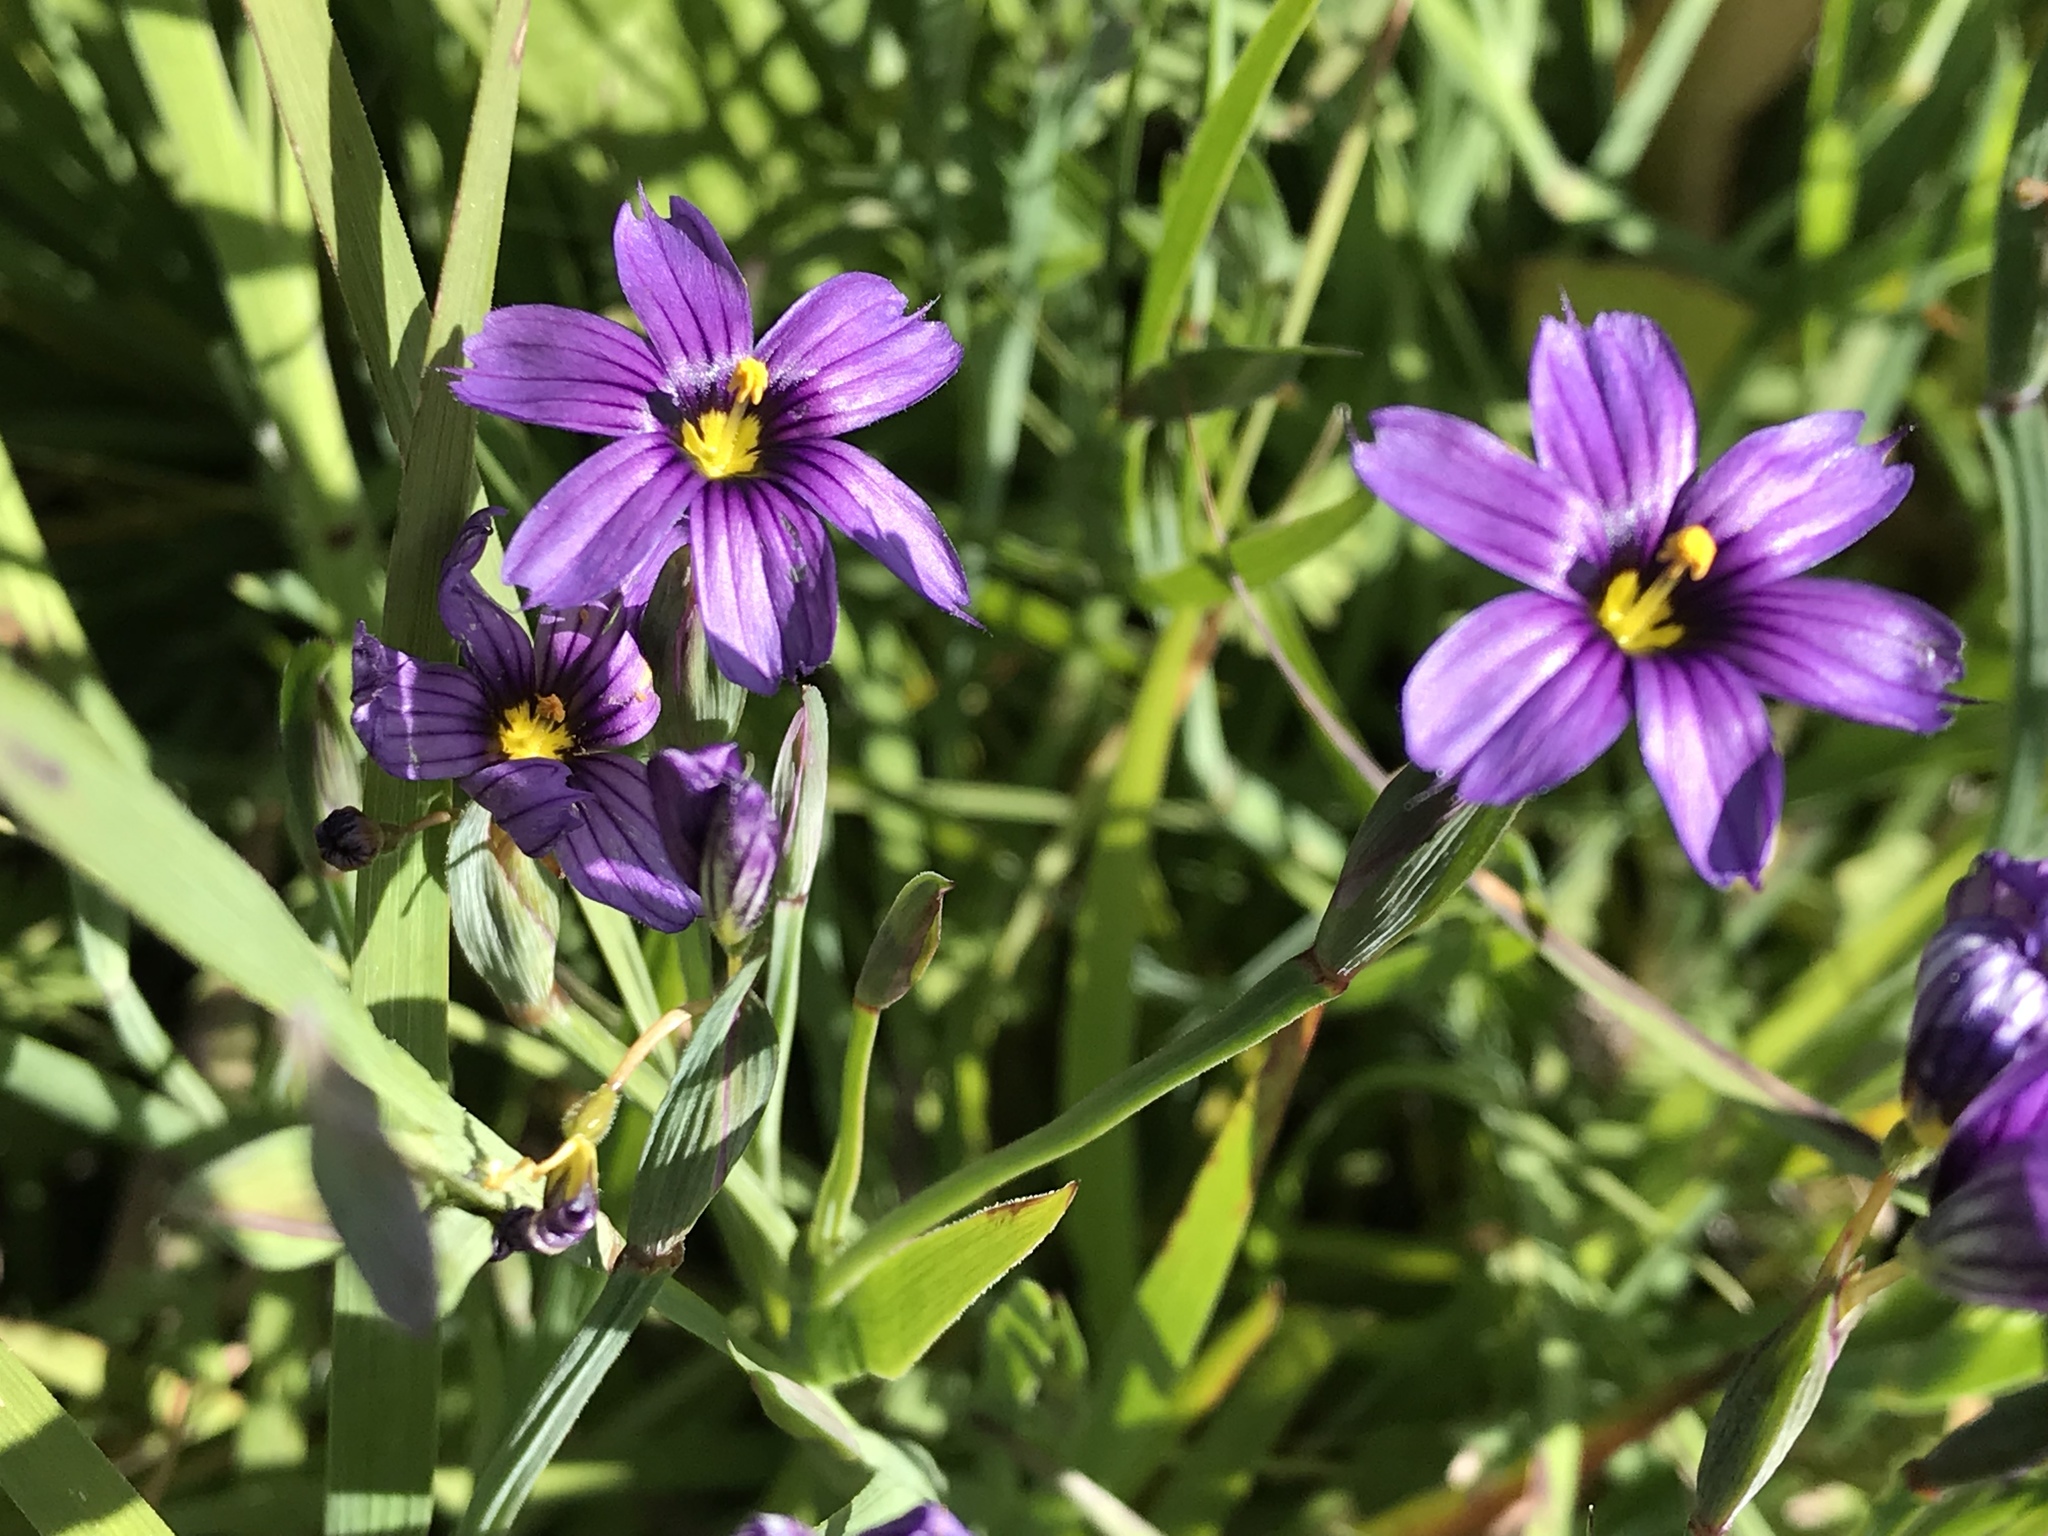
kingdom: Plantae
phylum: Tracheophyta
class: Liliopsida
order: Asparagales
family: Iridaceae
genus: Sisyrinchium
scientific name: Sisyrinchium bellum
